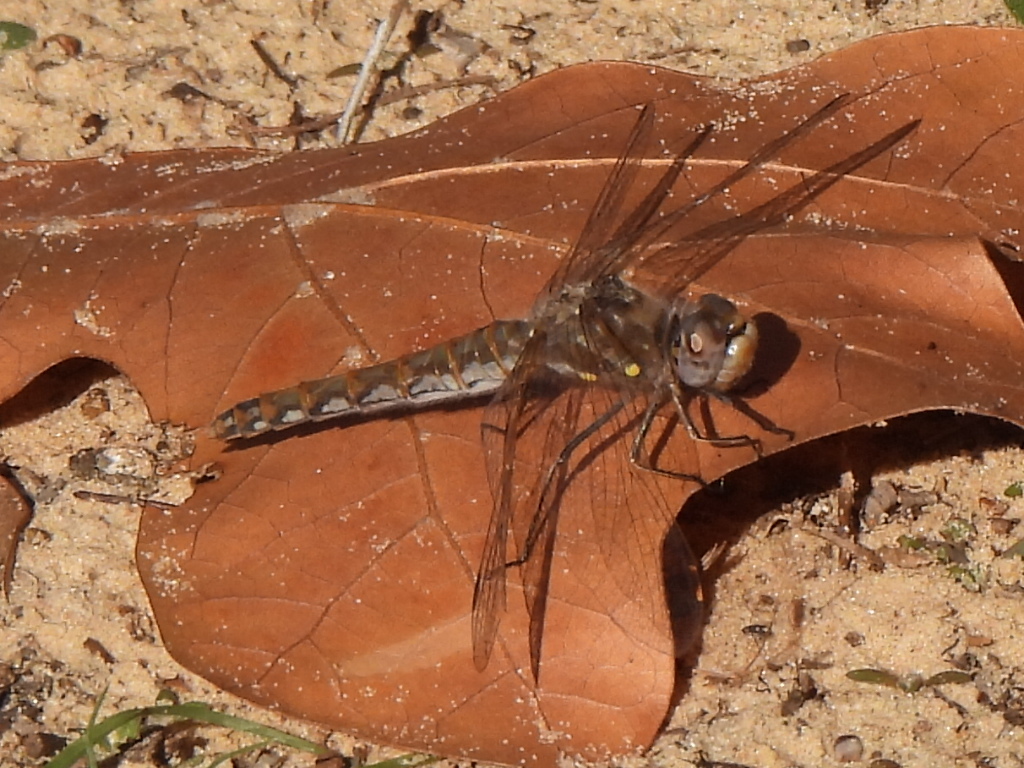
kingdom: Animalia
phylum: Arthropoda
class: Insecta
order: Odonata
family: Libellulidae
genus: Sympetrum
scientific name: Sympetrum corruptum
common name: Variegated meadowhawk
